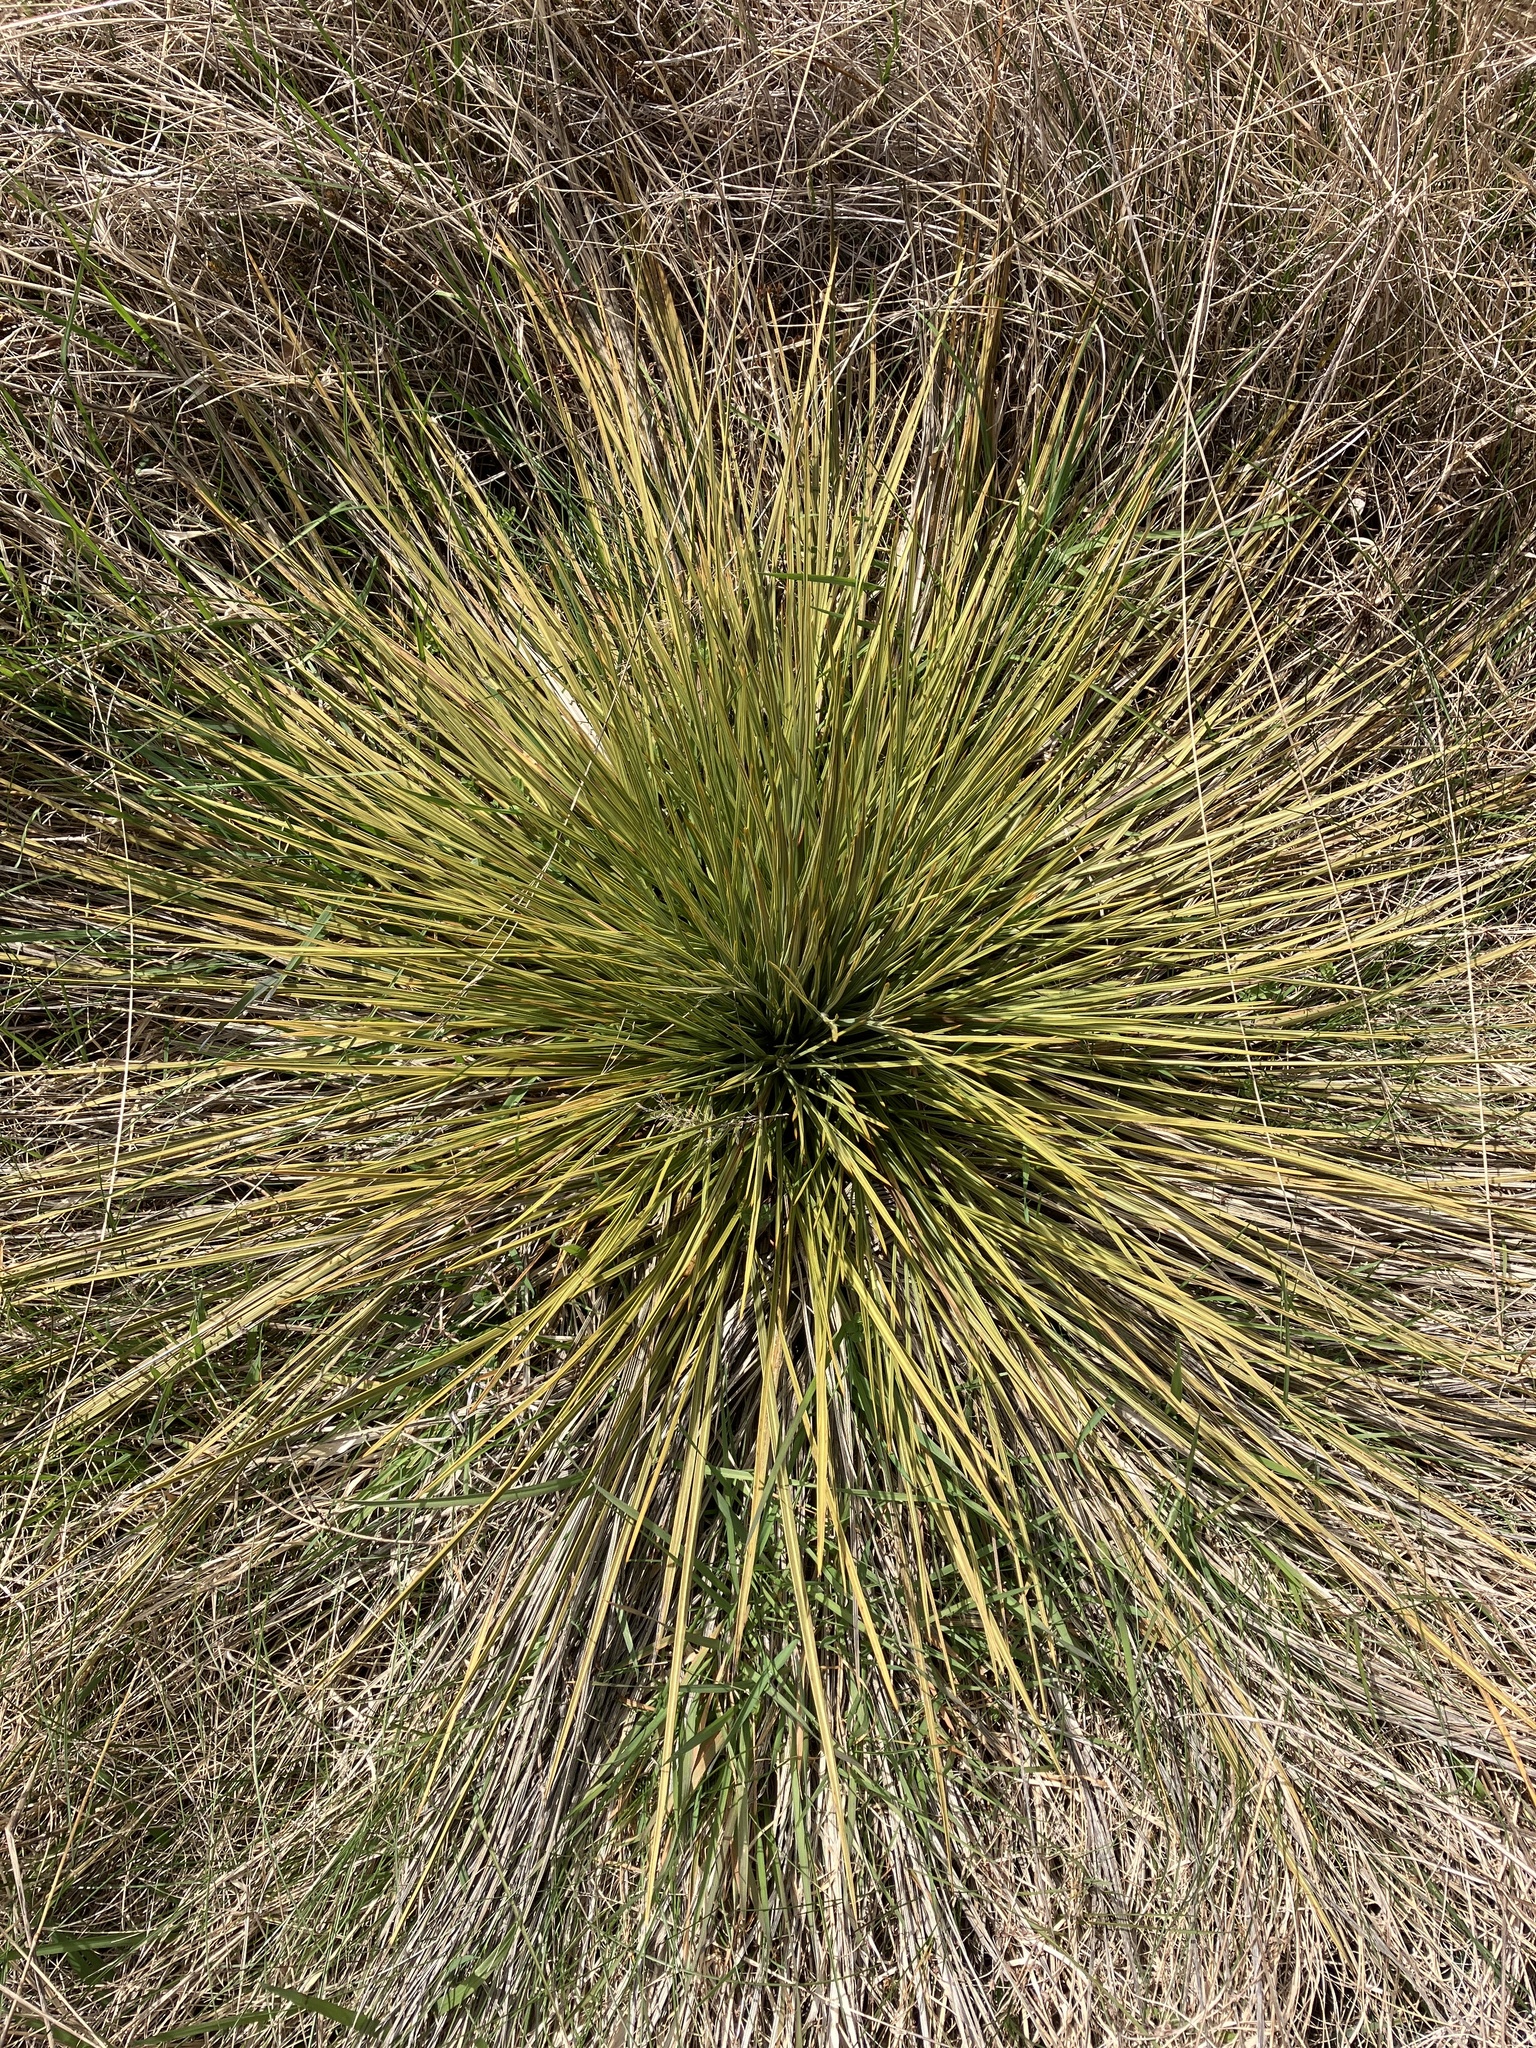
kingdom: Plantae
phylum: Tracheophyta
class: Magnoliopsida
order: Apiales
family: Apiaceae
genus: Aciphylla
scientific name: Aciphylla subflabellata
